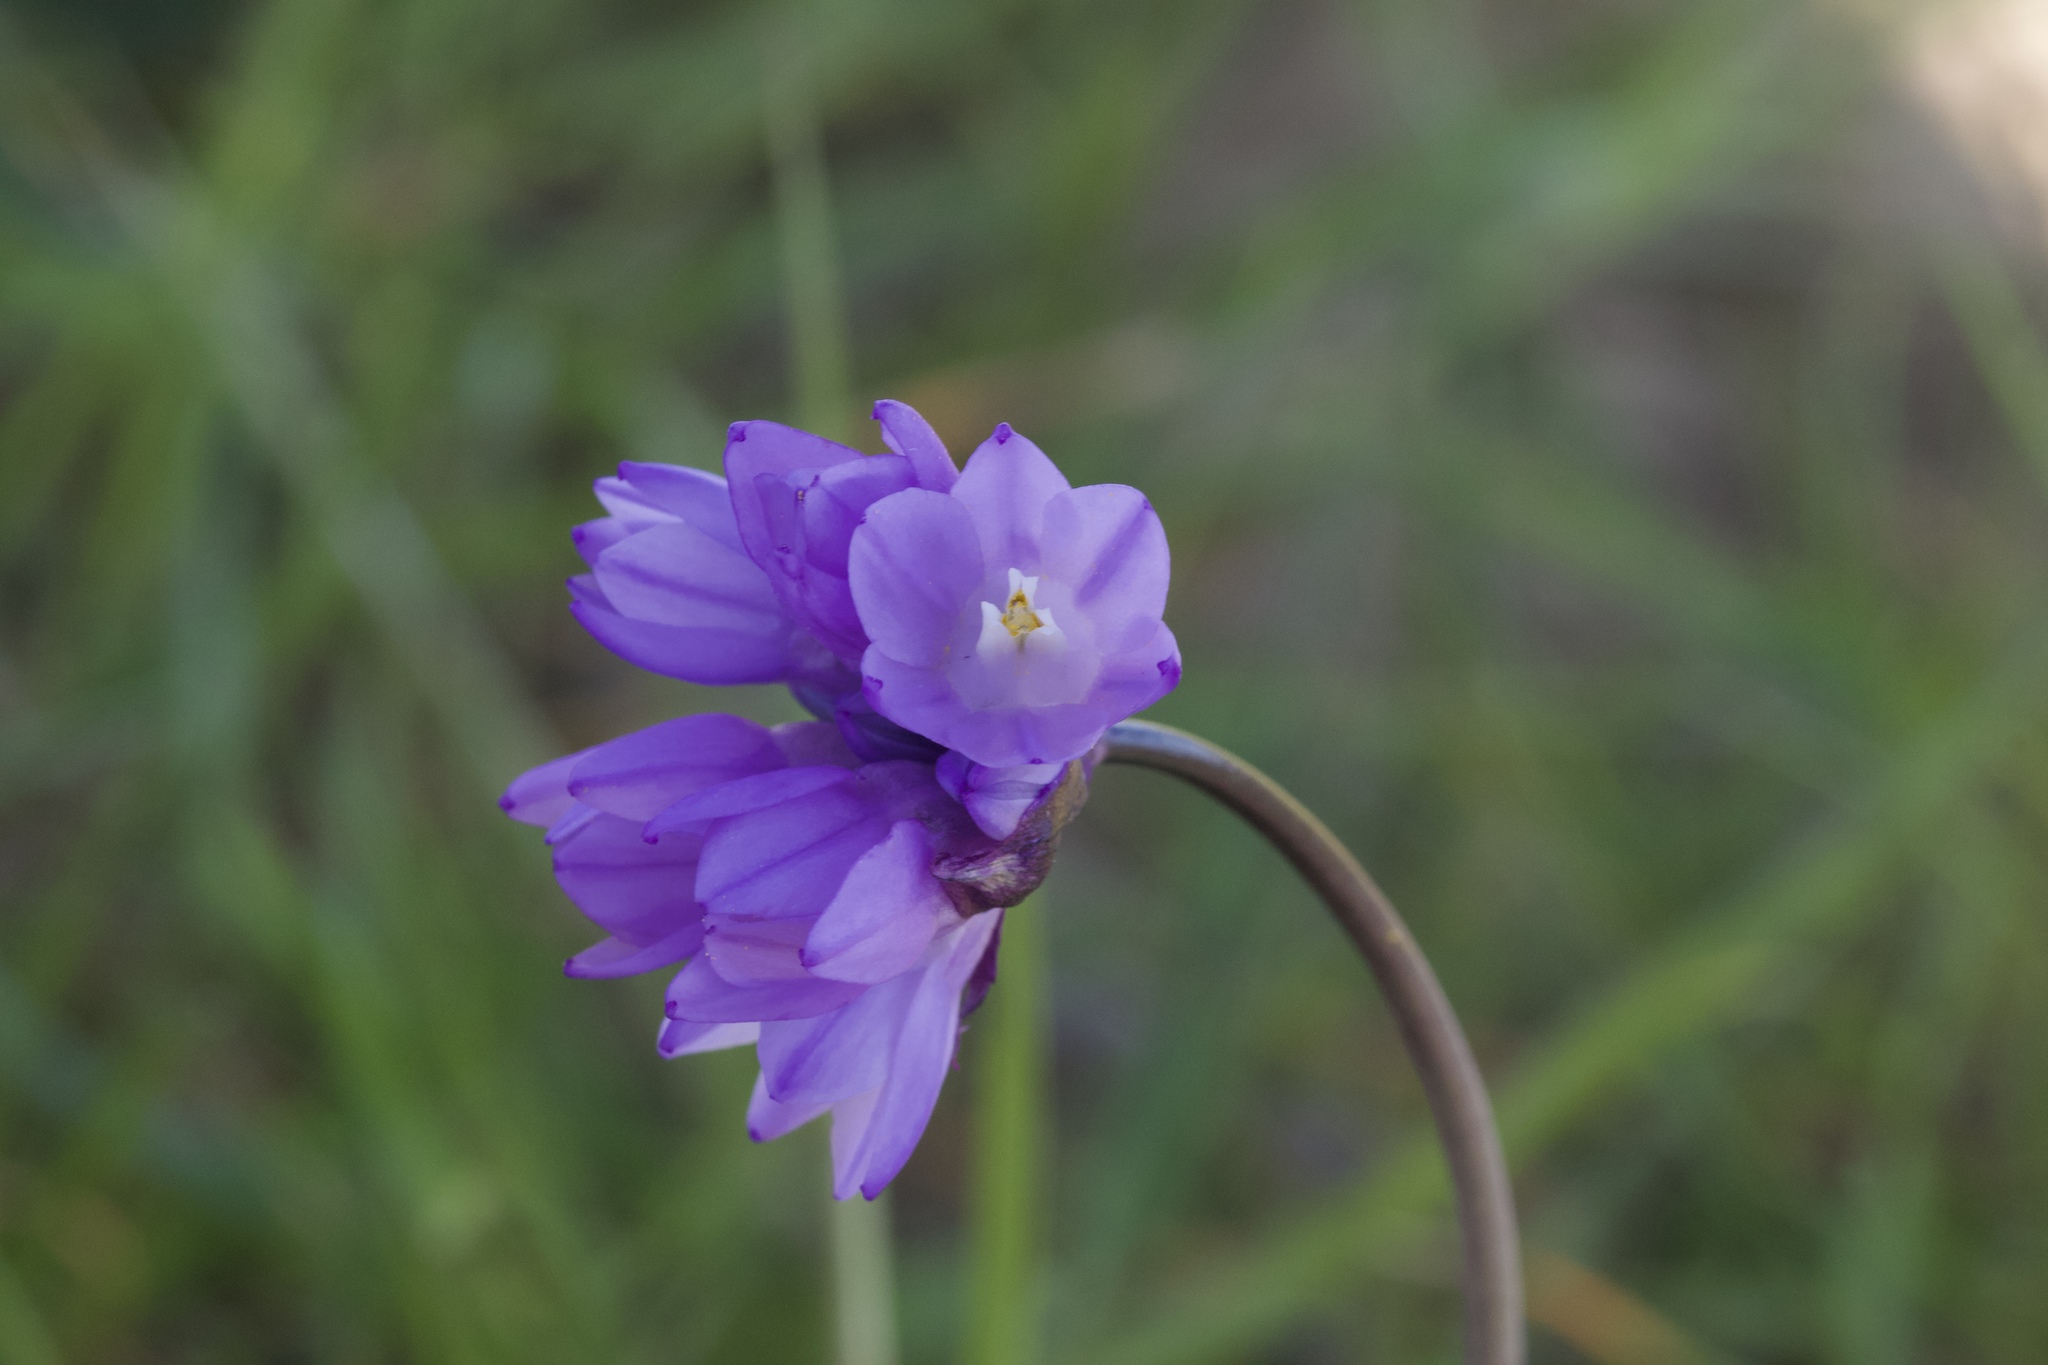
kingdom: Plantae
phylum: Tracheophyta
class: Liliopsida
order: Asparagales
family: Asparagaceae
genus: Dipterostemon
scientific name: Dipterostemon capitatus
